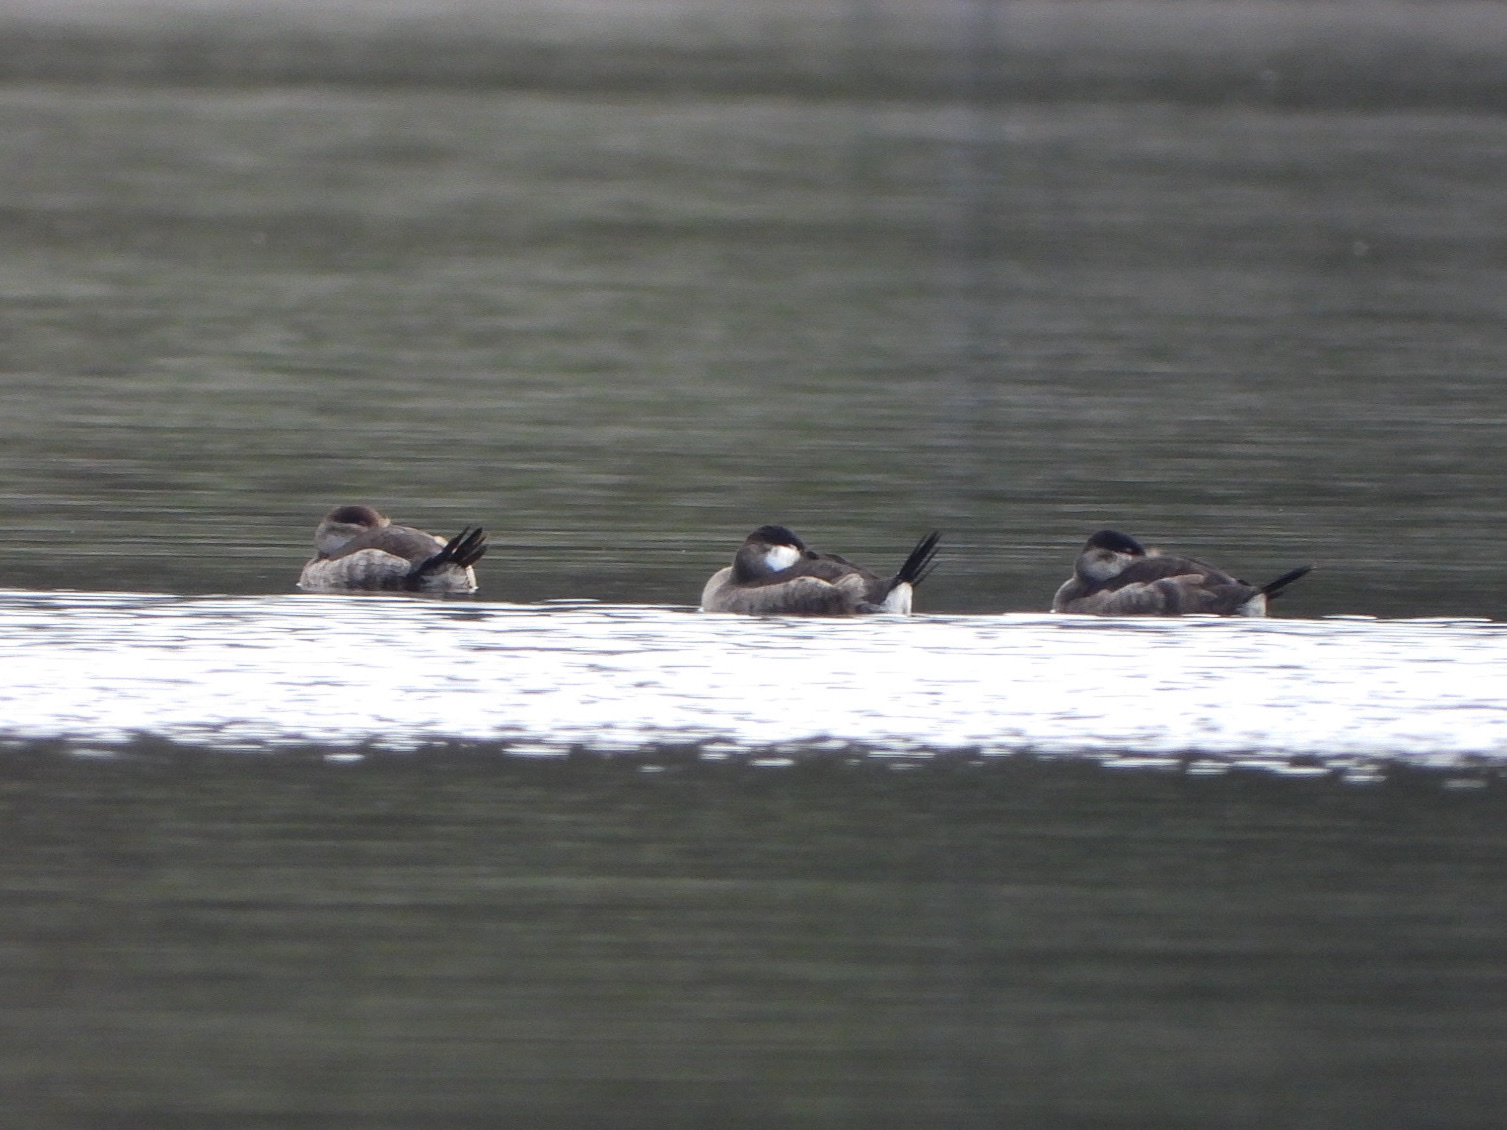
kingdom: Animalia
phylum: Chordata
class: Aves
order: Anseriformes
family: Anatidae
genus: Oxyura
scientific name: Oxyura jamaicensis
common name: Ruddy duck
